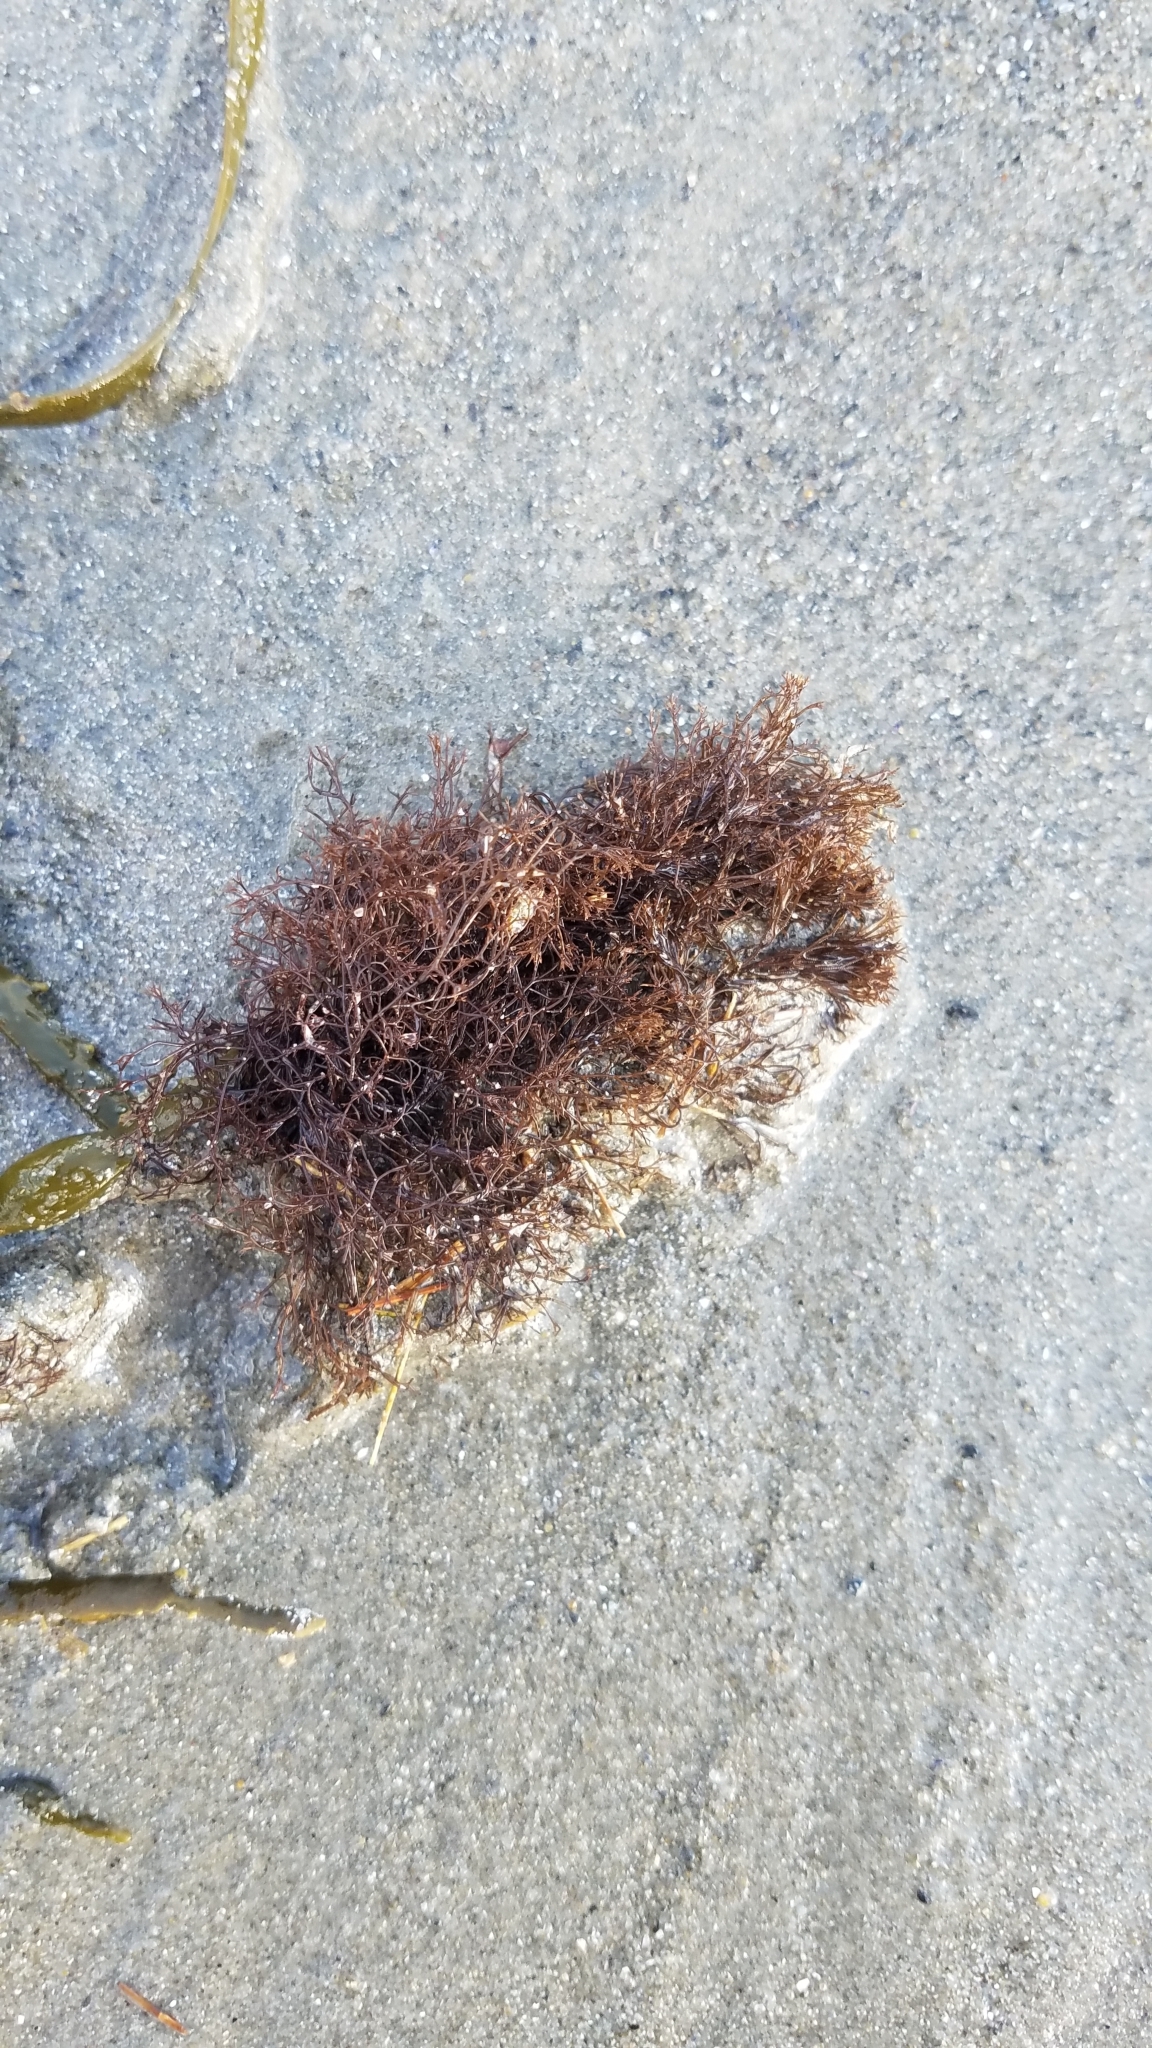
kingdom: Plantae
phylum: Rhodophyta
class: Florideophyceae
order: Ceramiales
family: Rhodomelaceae
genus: Vertebrata
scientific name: Vertebrata lanosa
